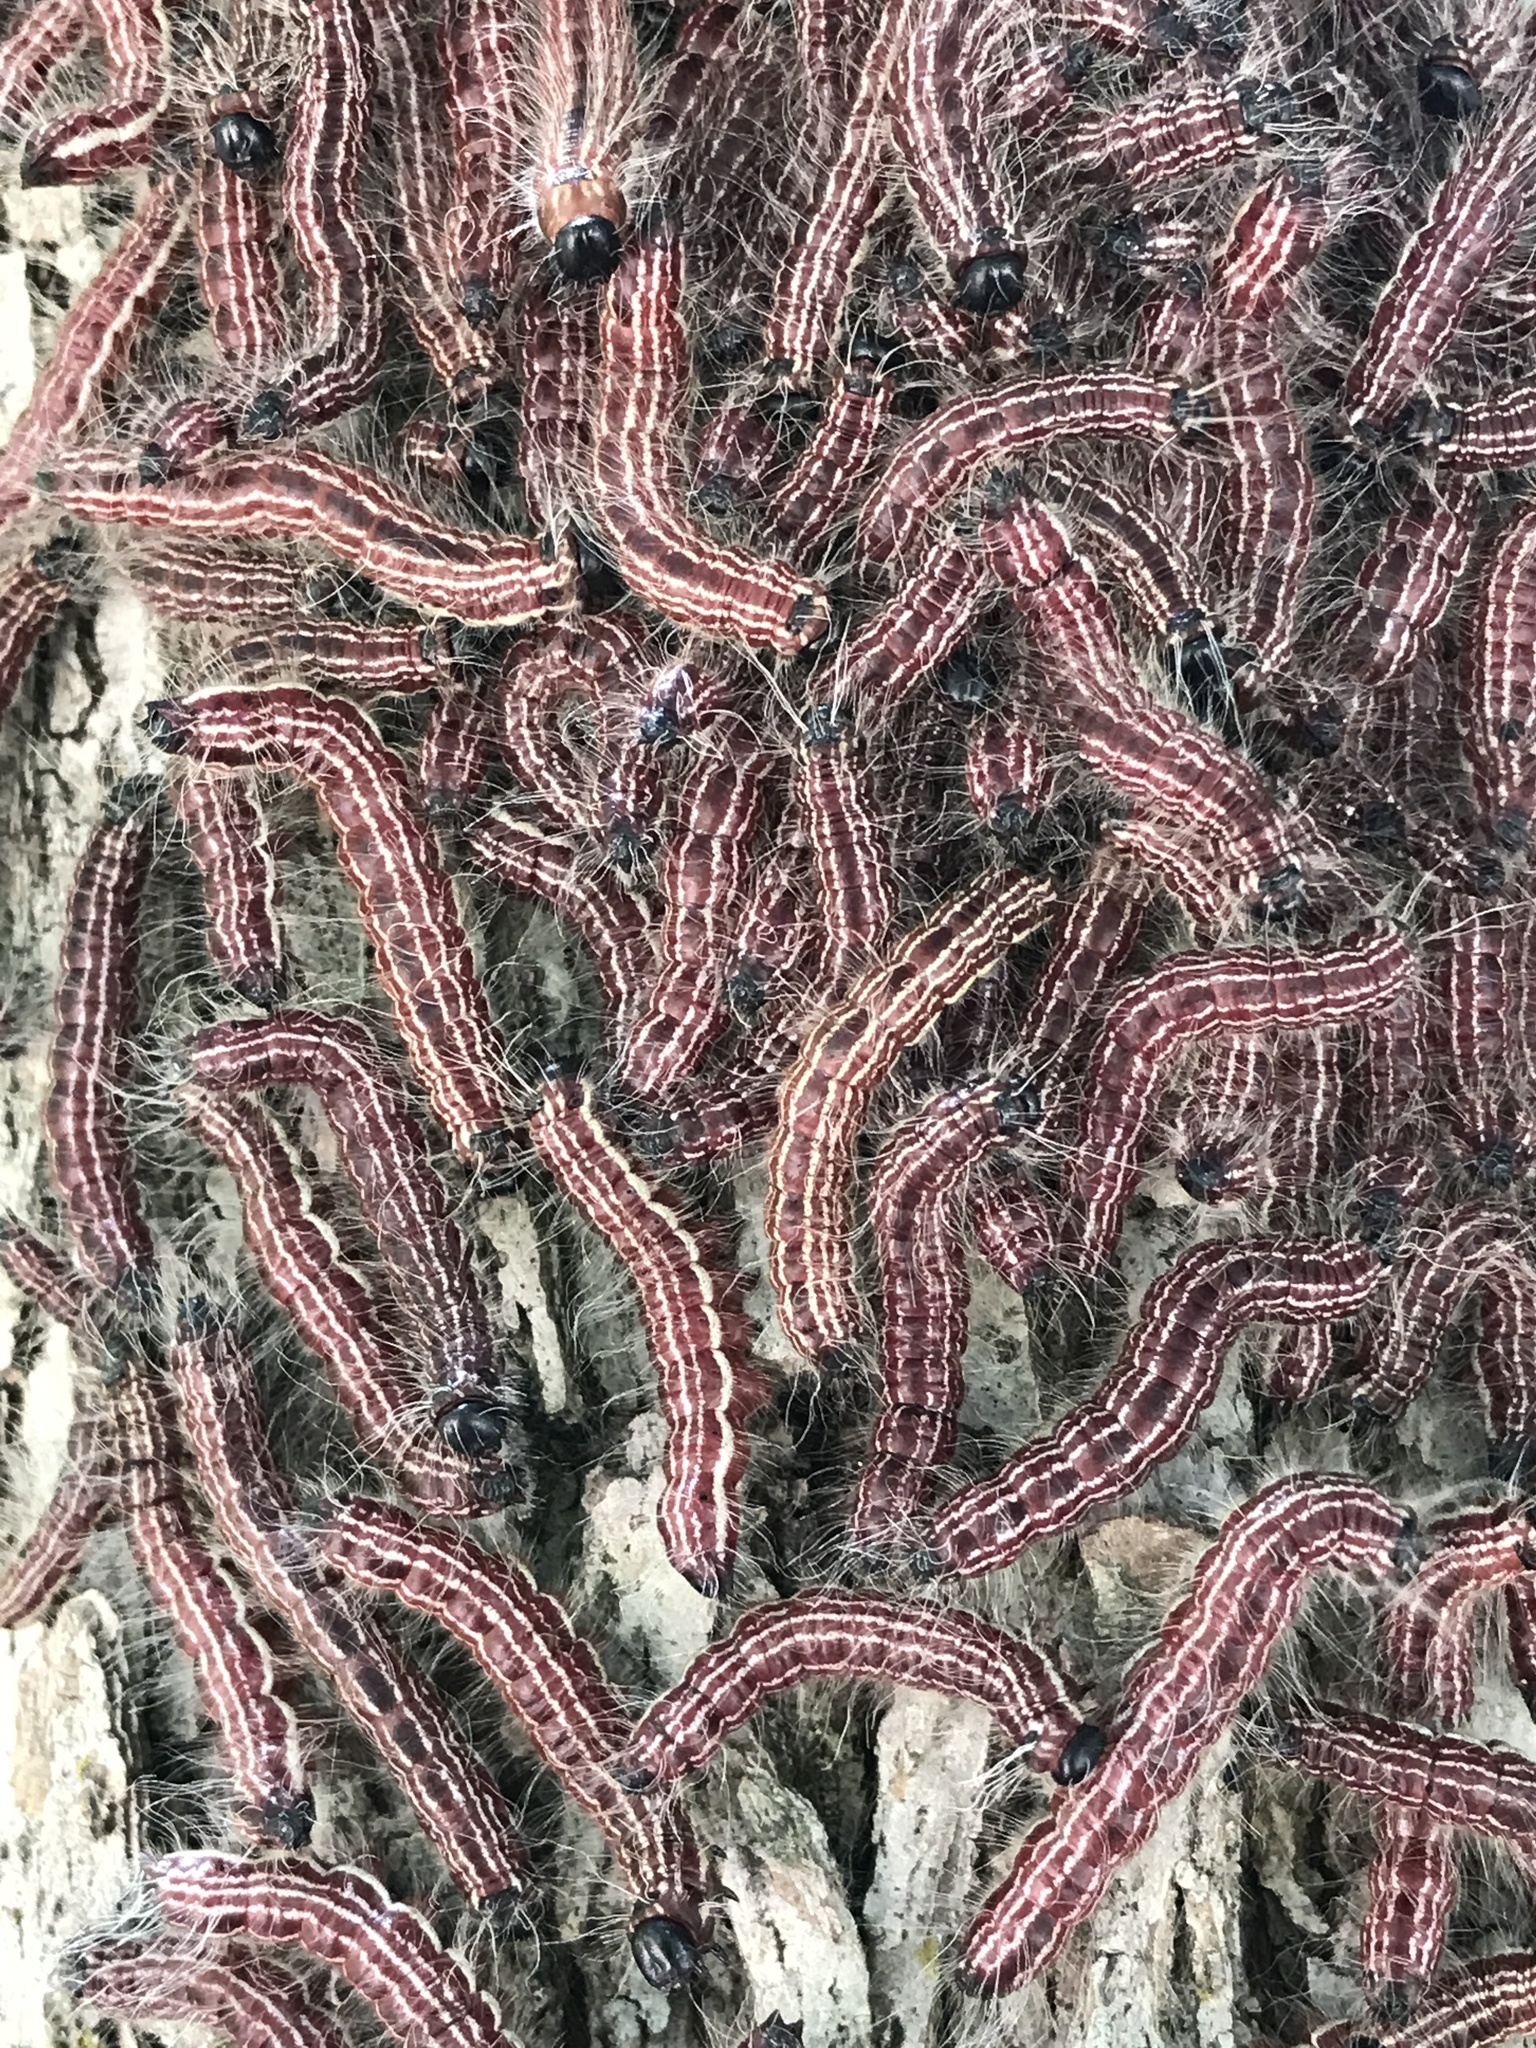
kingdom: Animalia
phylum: Arthropoda
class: Insecta
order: Lepidoptera
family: Notodontidae
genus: Datana
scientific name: Datana integerrima
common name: Walnut caterpillar
